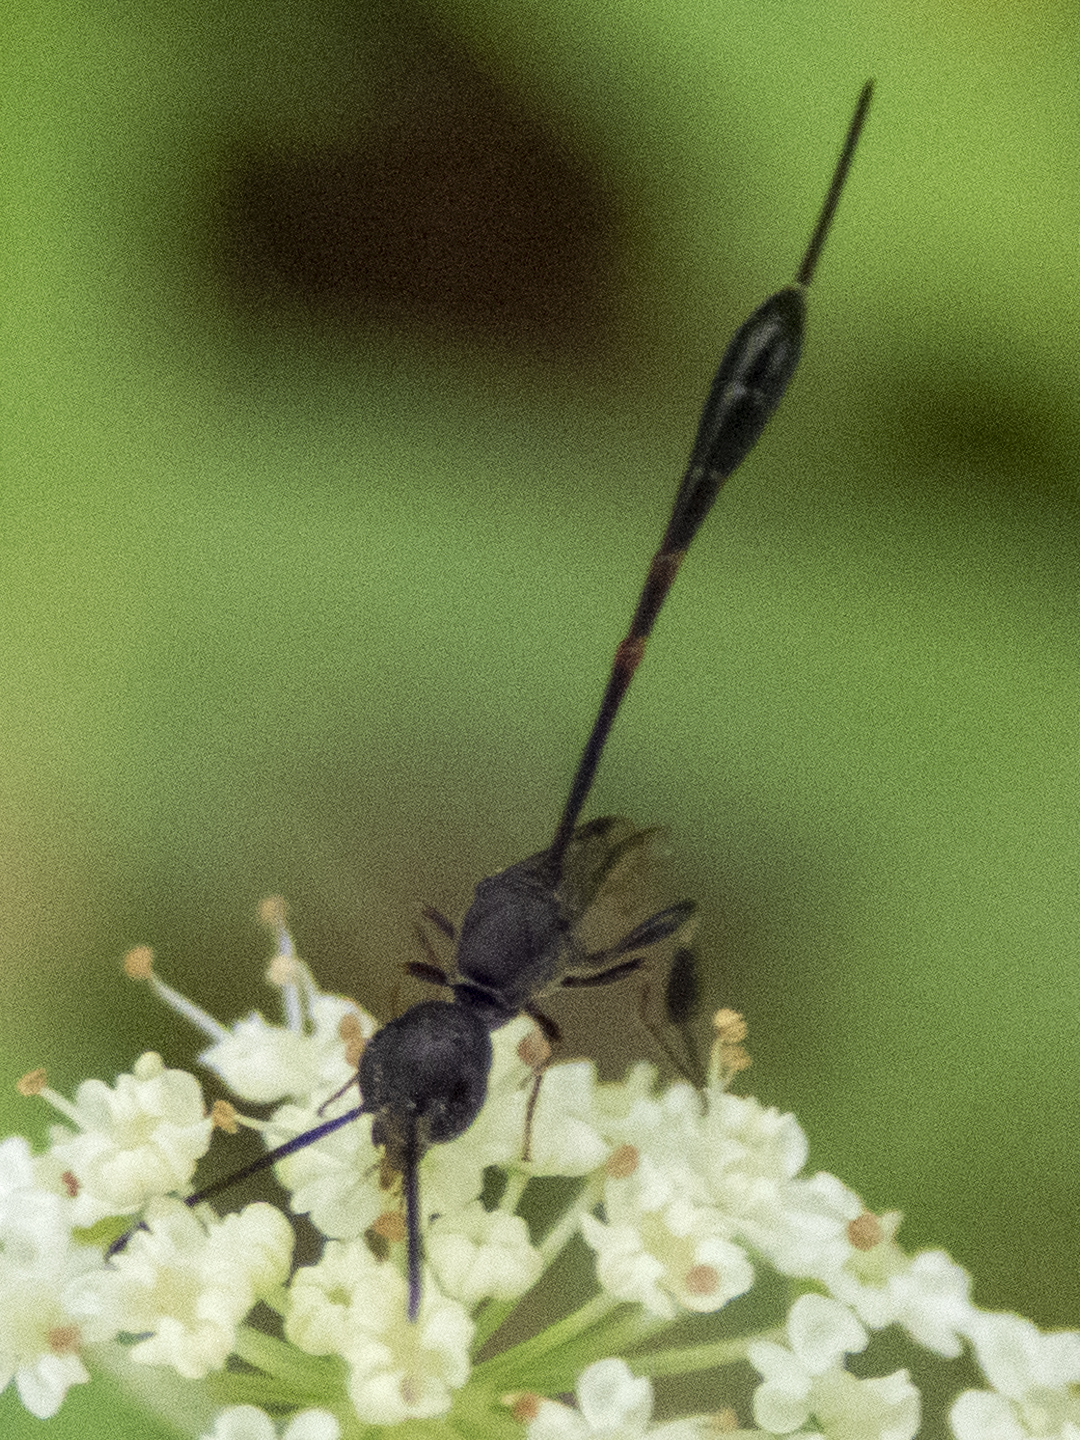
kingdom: Animalia
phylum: Arthropoda
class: Insecta
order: Hymenoptera
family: Gasteruptiidae
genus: Gasteruption
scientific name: Gasteruption
